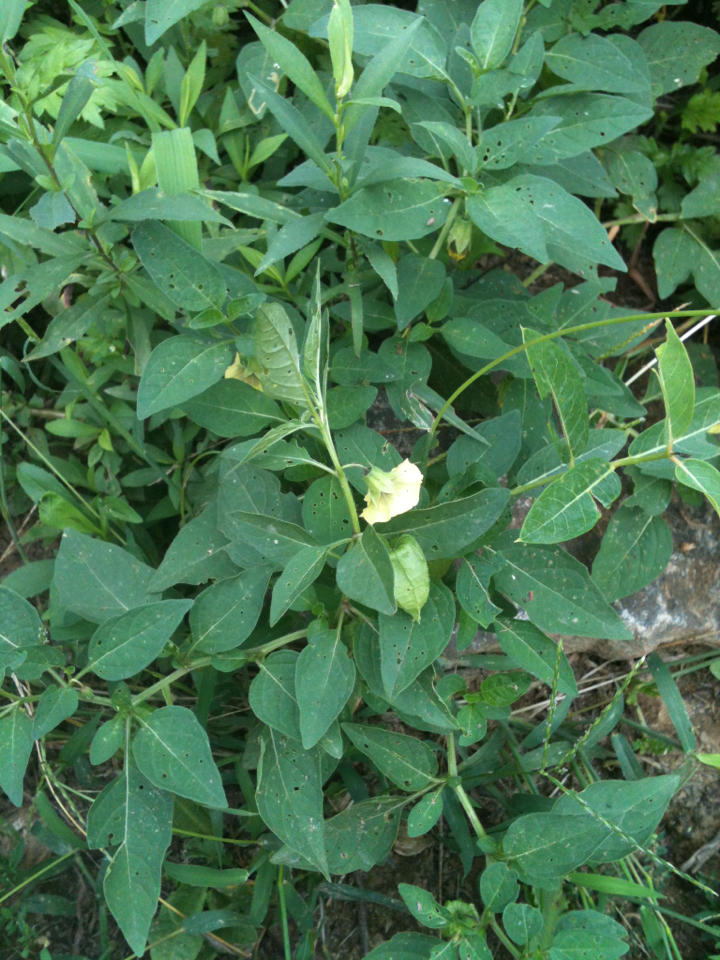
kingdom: Plantae
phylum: Tracheophyta
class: Magnoliopsida
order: Solanales
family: Solanaceae
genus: Physalis
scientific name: Physalis longifolia
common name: Common ground-cherry
